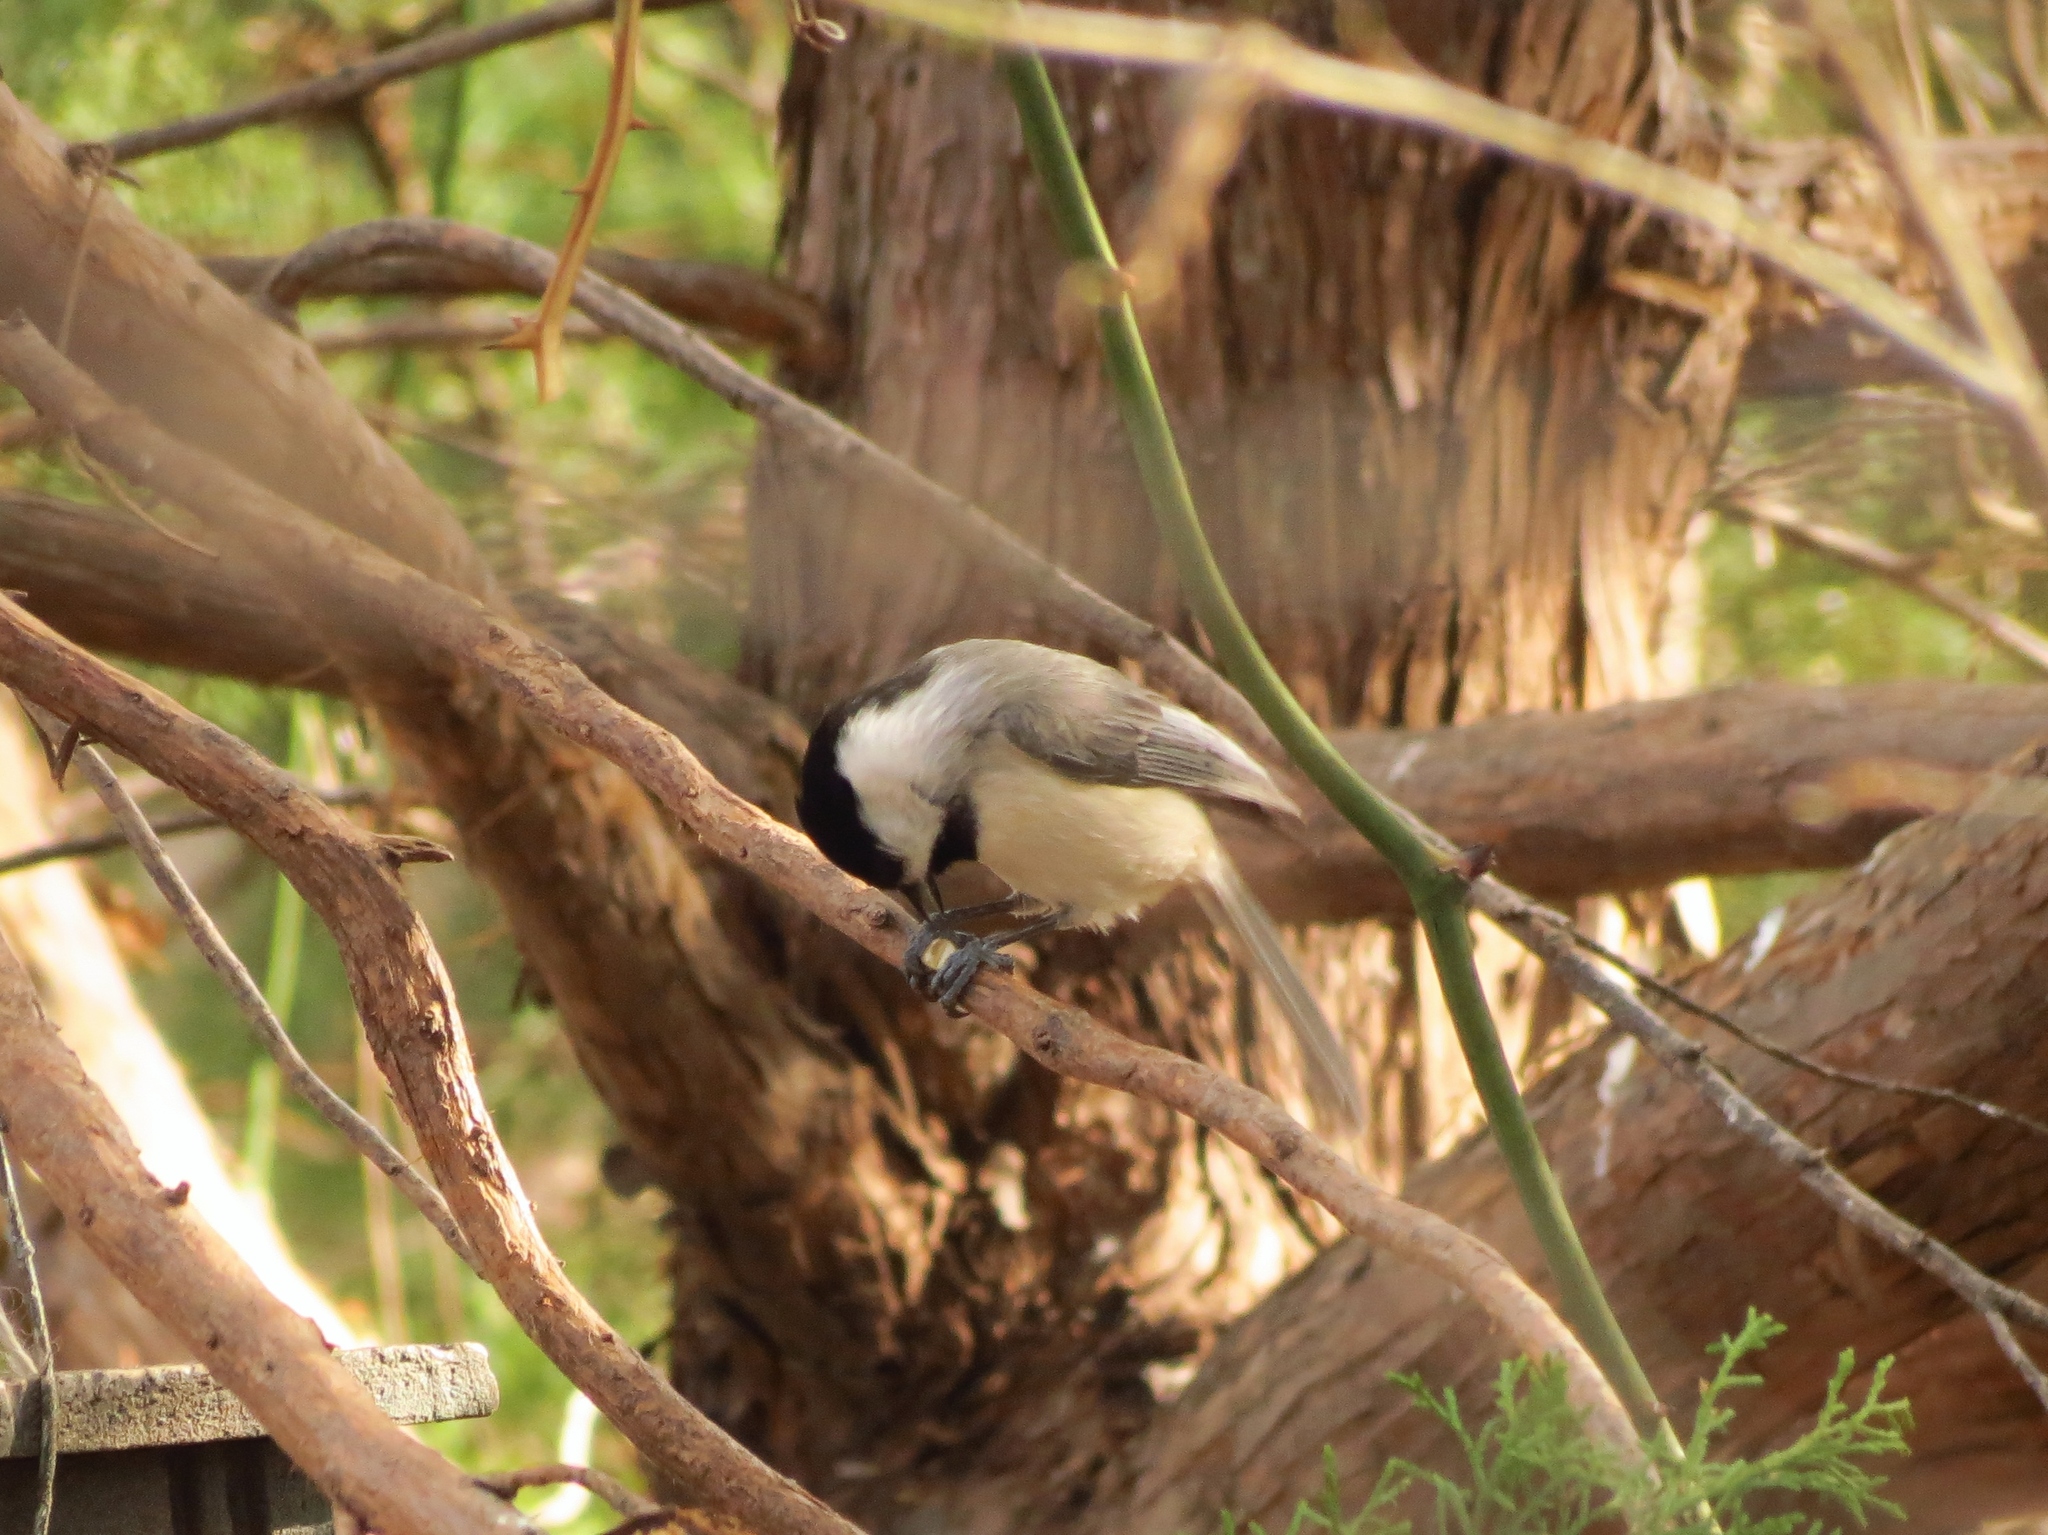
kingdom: Animalia
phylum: Chordata
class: Aves
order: Passeriformes
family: Paridae
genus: Poecile
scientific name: Poecile carolinensis
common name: Carolina chickadee
